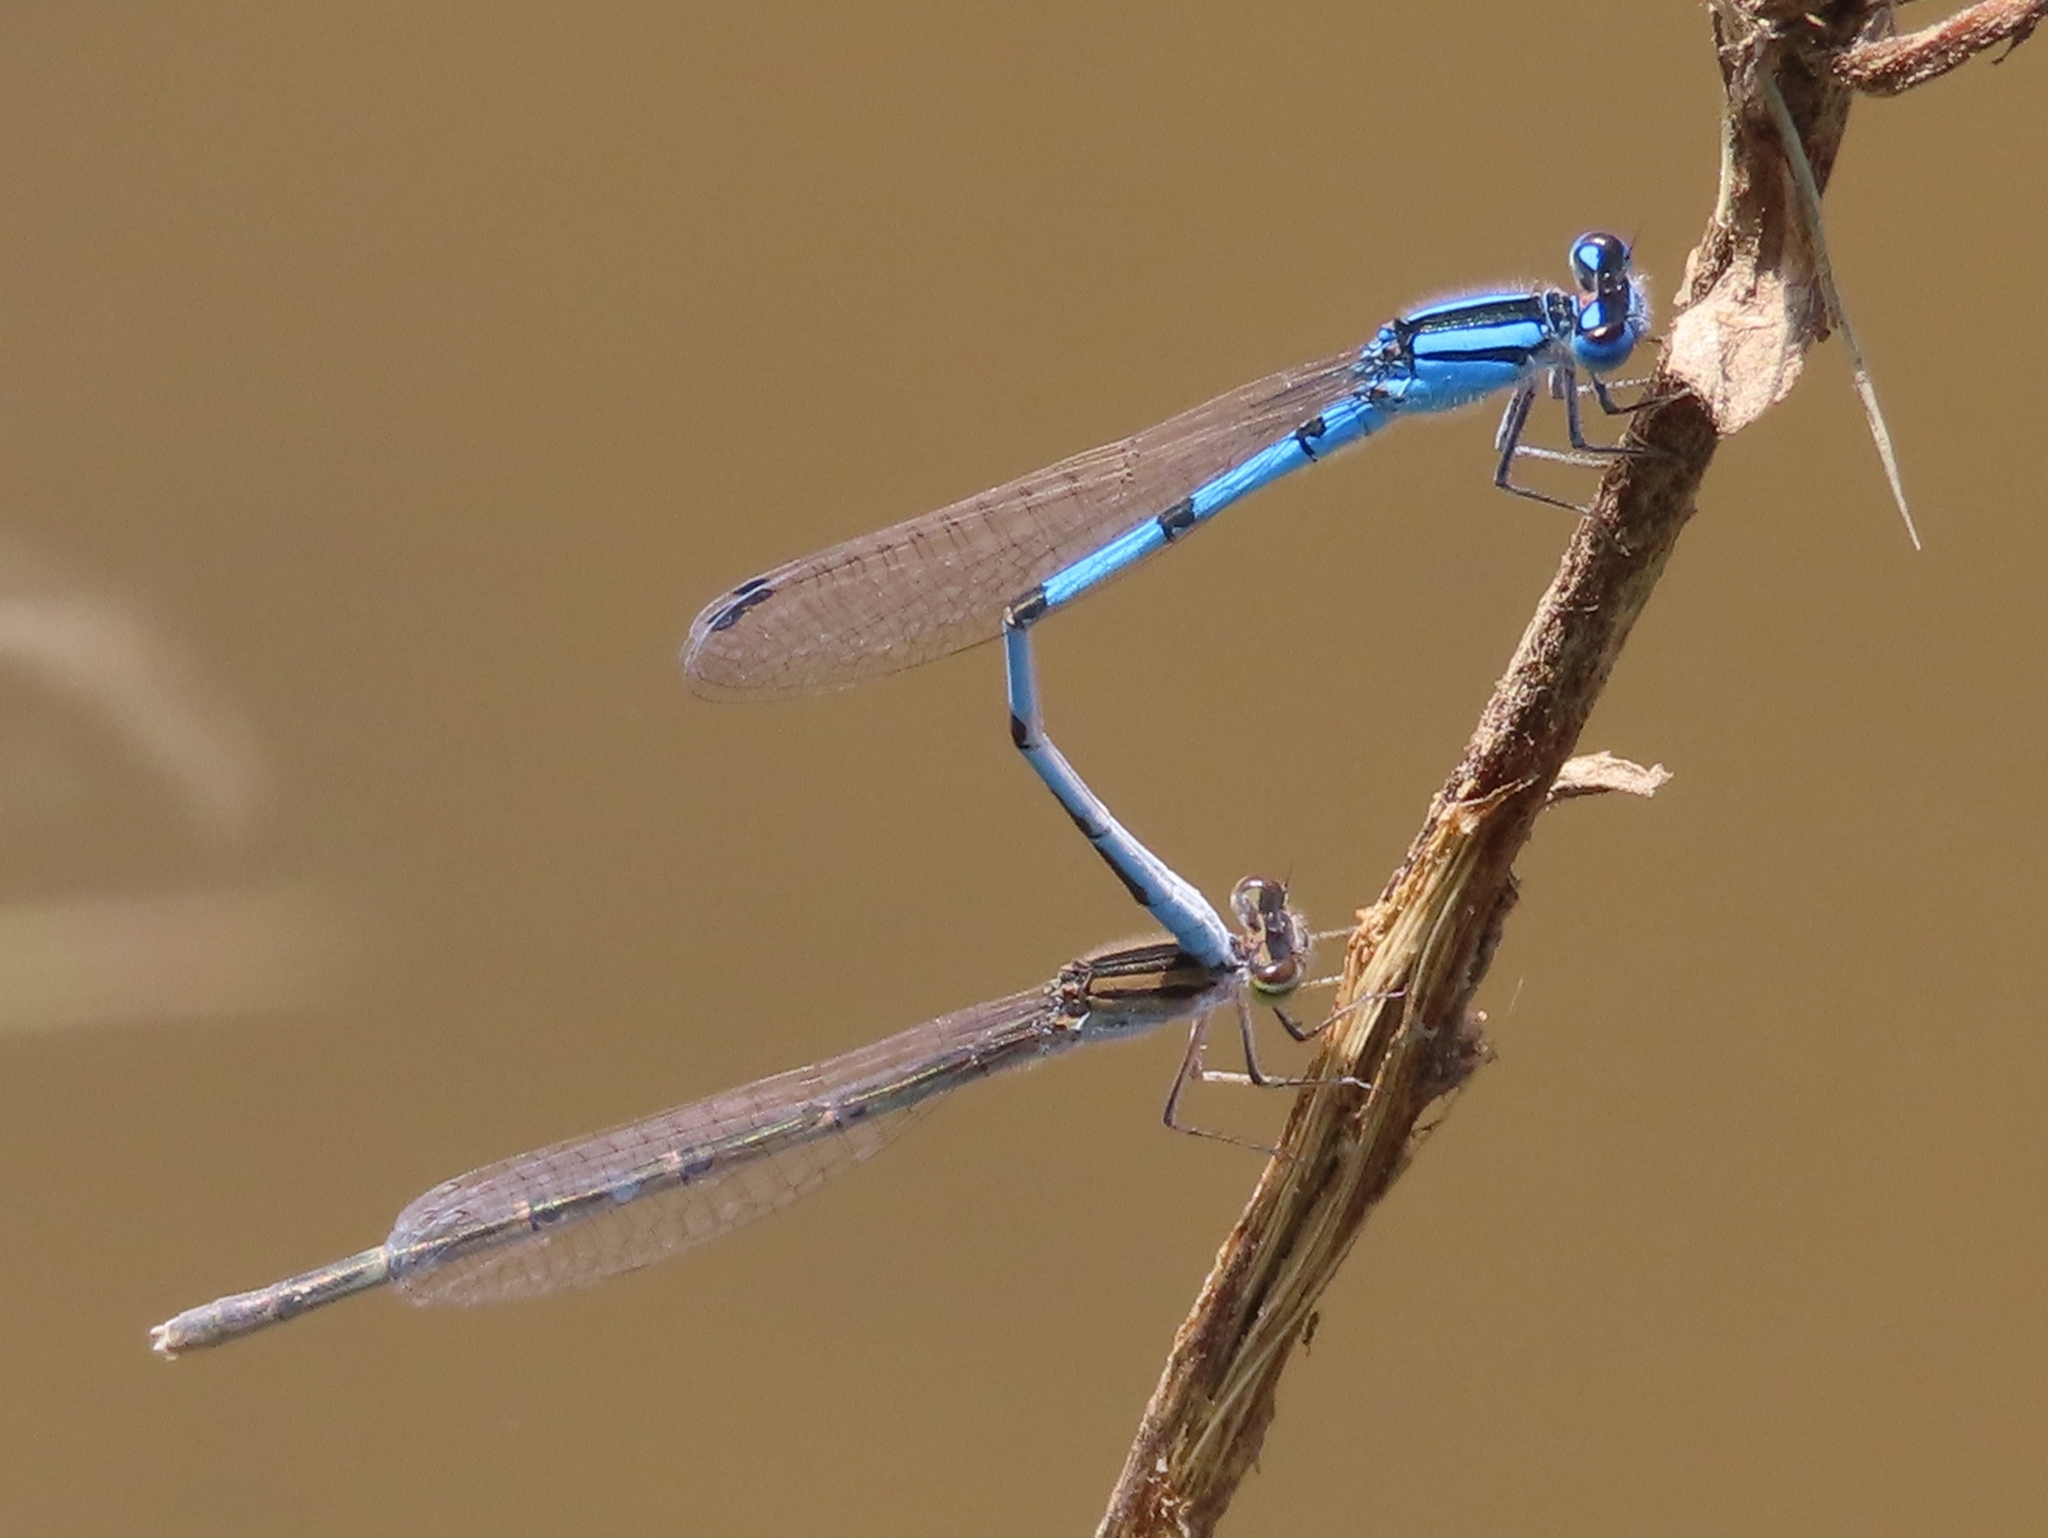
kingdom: Animalia
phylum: Arthropoda
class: Insecta
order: Odonata
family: Coenagrionidae
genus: Enallagma
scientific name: Enallagma civile
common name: Damselfly
